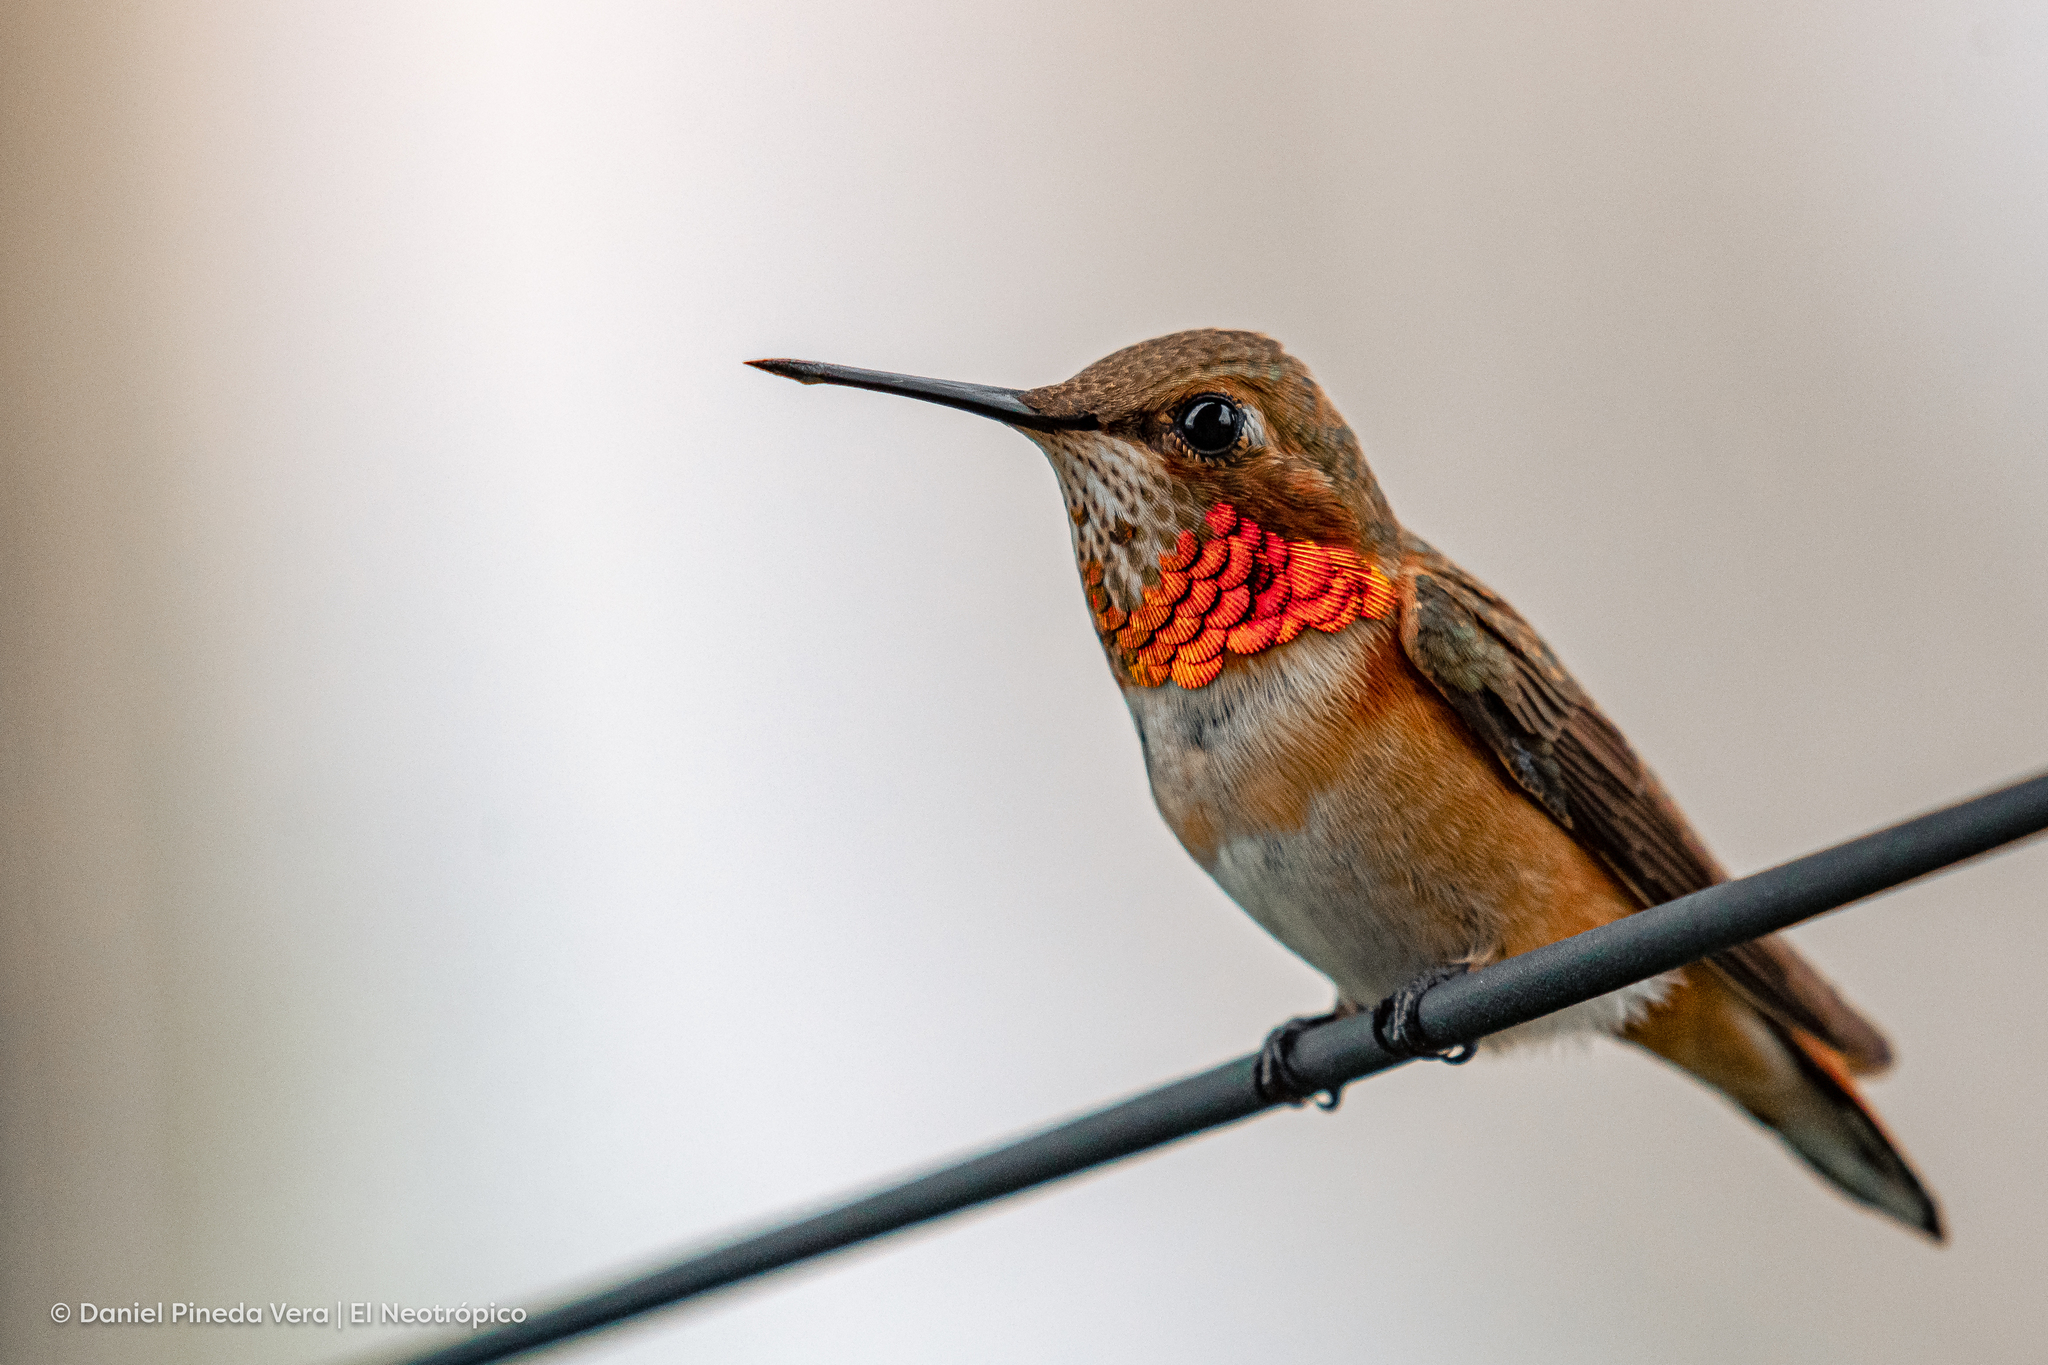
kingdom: Animalia
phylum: Chordata
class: Aves
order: Apodiformes
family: Trochilidae
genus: Selasphorus
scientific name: Selasphorus rufus
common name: Rufous hummingbird
